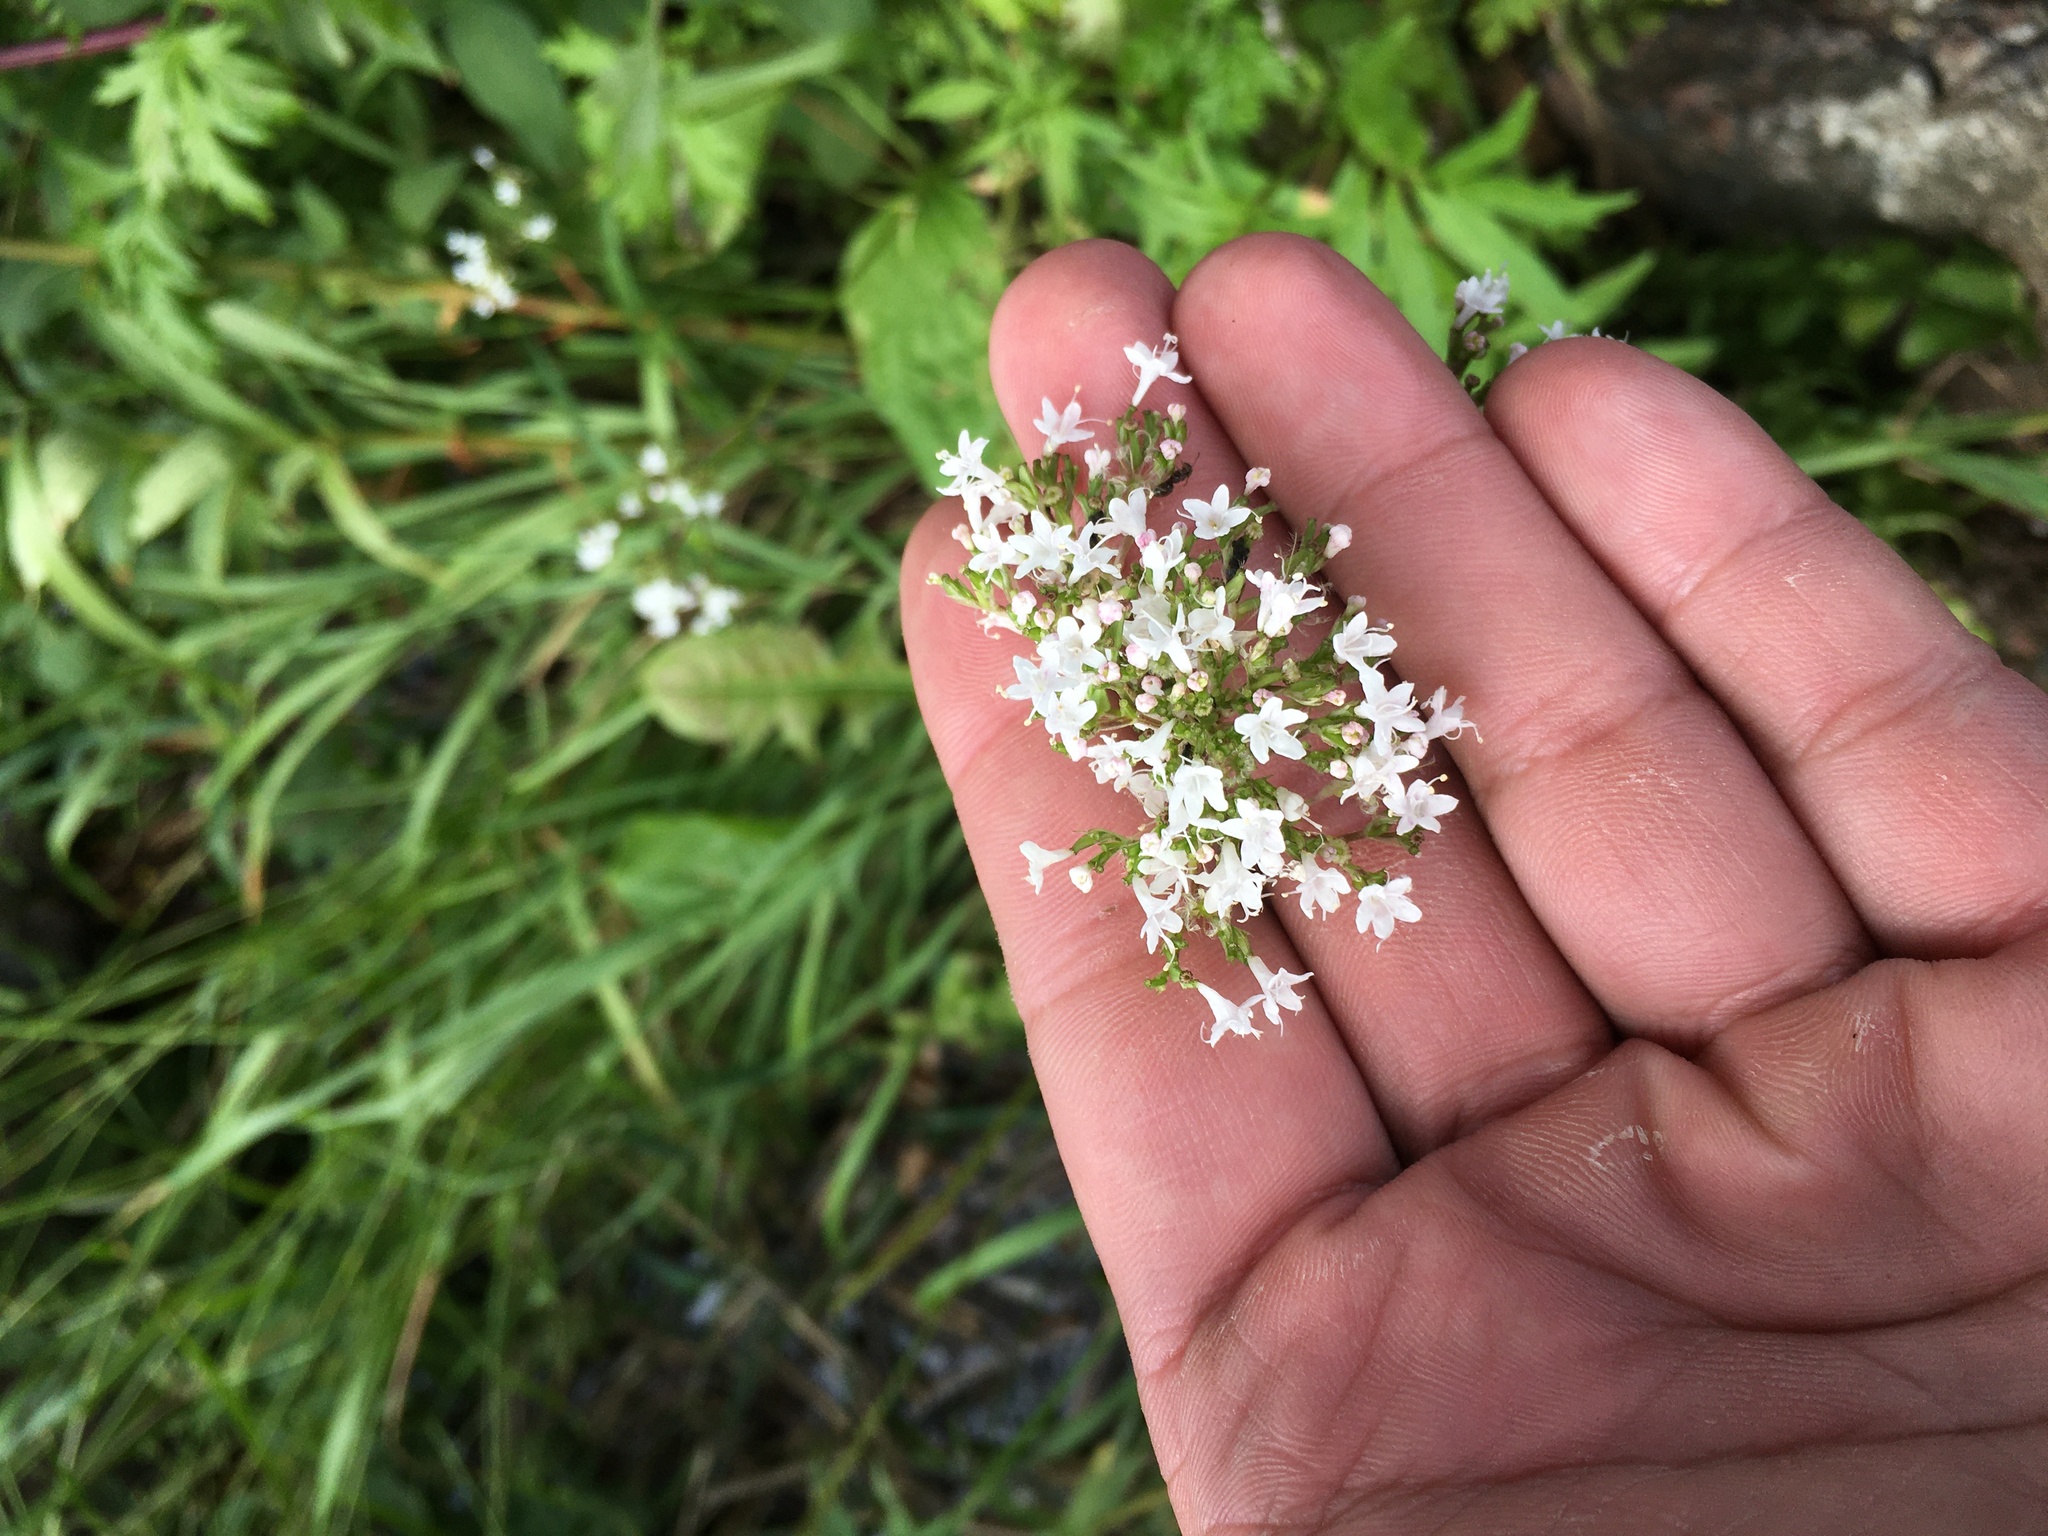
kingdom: Plantae
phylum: Tracheophyta
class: Magnoliopsida
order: Dipsacales
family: Caprifoliaceae
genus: Valeriana
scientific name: Valeriana officinalis
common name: Common valerian
